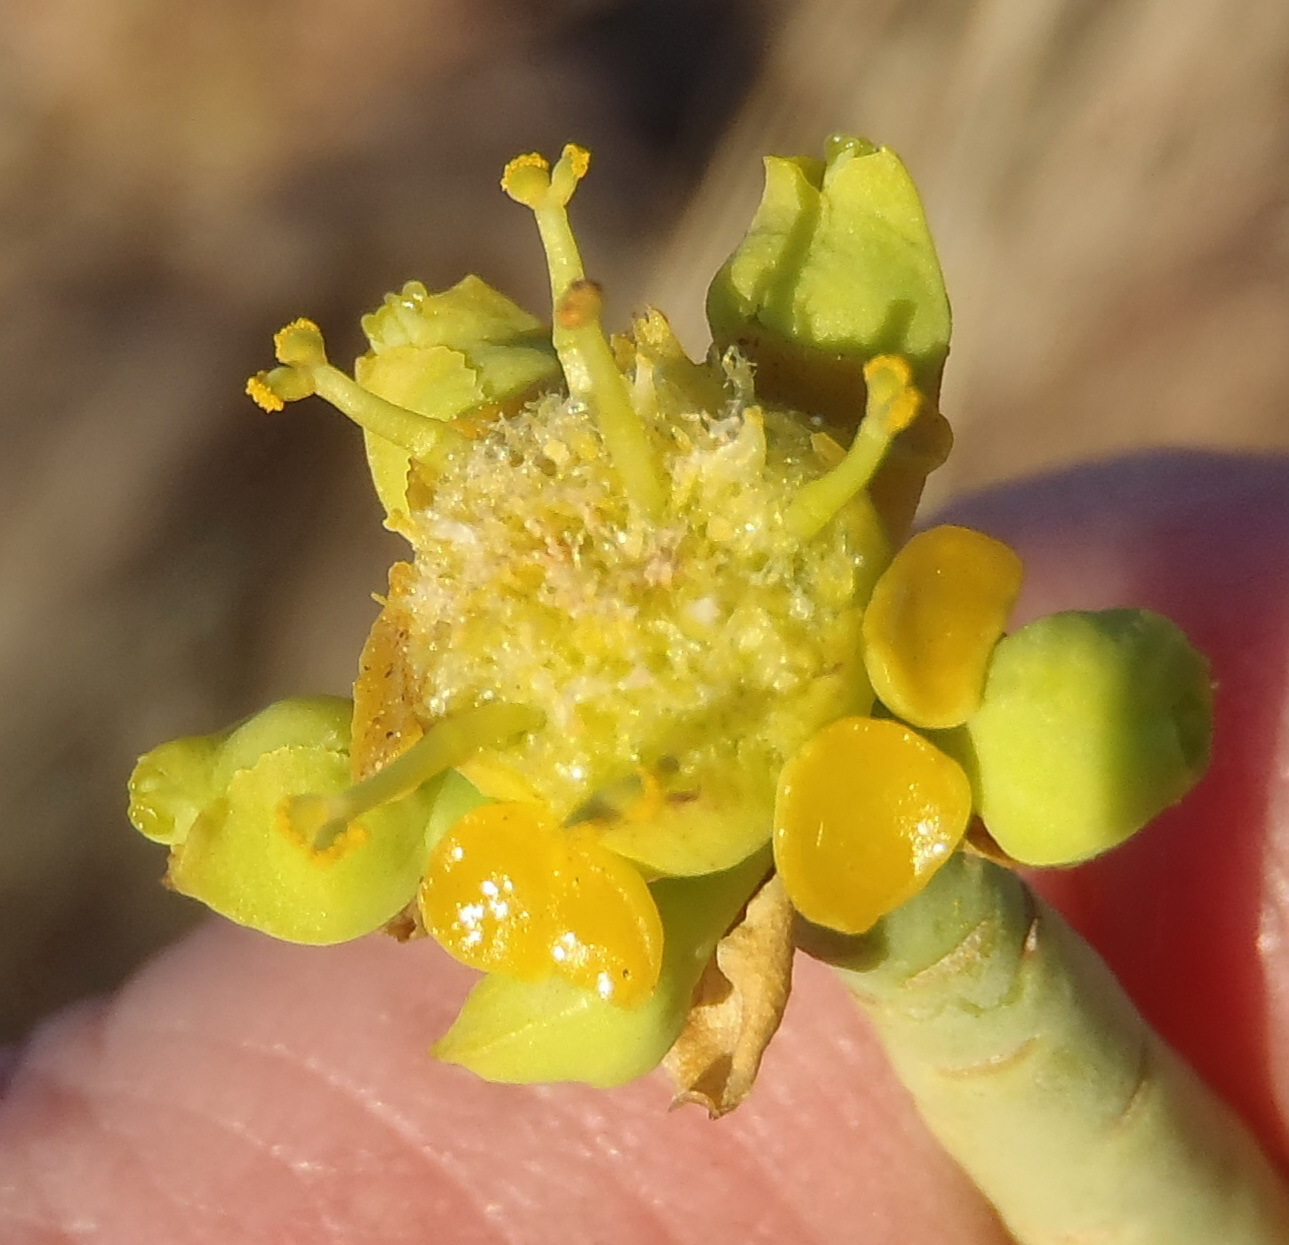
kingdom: Plantae
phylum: Tracheophyta
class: Magnoliopsida
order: Malpighiales
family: Euphorbiaceae
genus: Euphorbia
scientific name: Euphorbia mauritanica
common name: Jackal's-food
